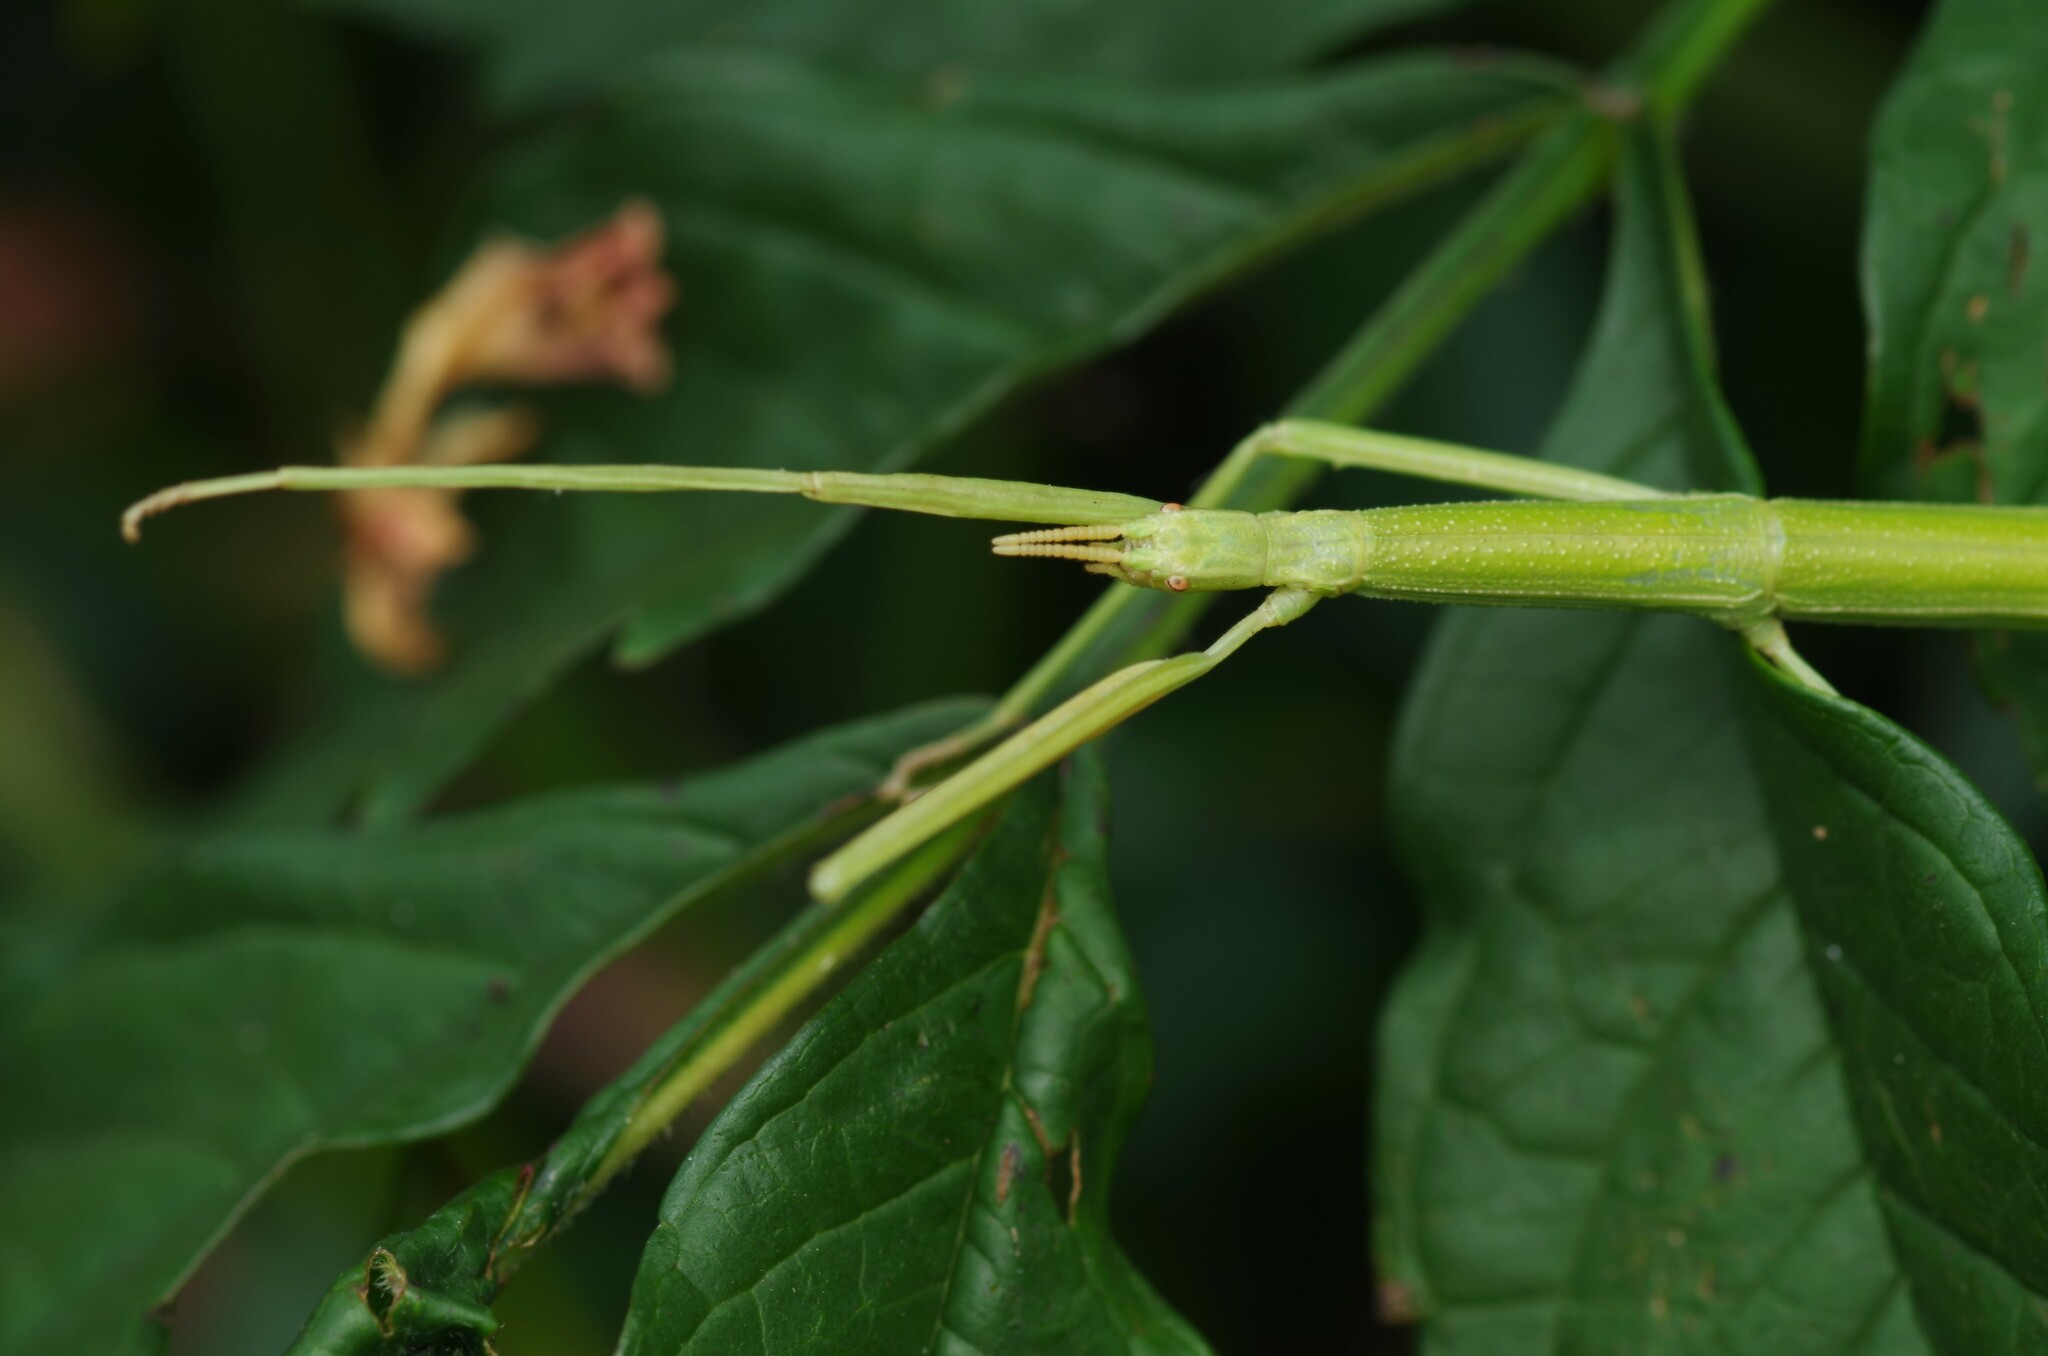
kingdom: Animalia
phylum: Arthropoda
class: Insecta
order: Phasmida
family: Bacillidae
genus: Clonopsis
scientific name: Clonopsis gallica
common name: French stick insect
